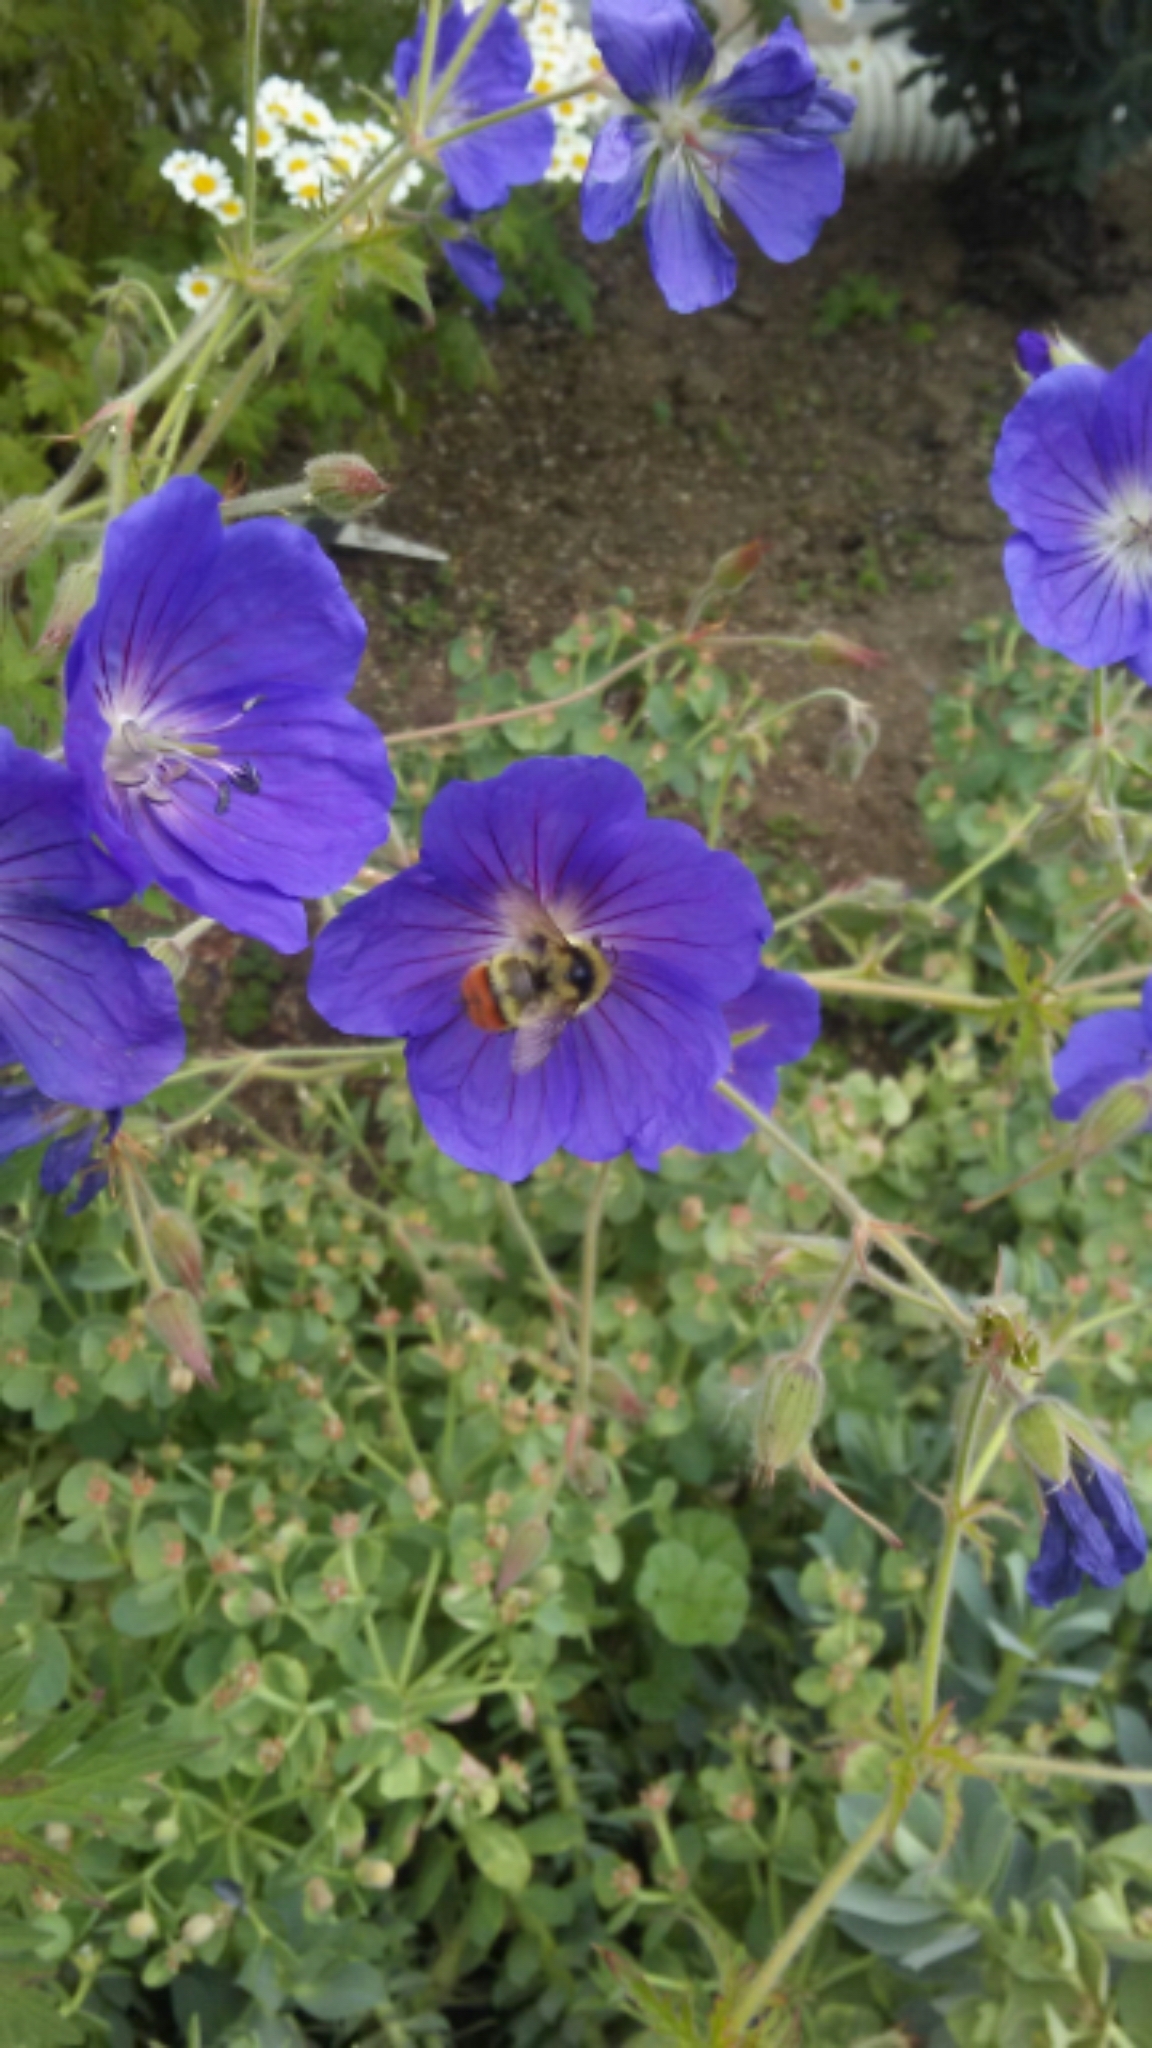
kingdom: Animalia
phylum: Arthropoda
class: Insecta
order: Hymenoptera
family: Apidae
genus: Bombus
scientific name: Bombus centralis
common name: Central bumble bee
